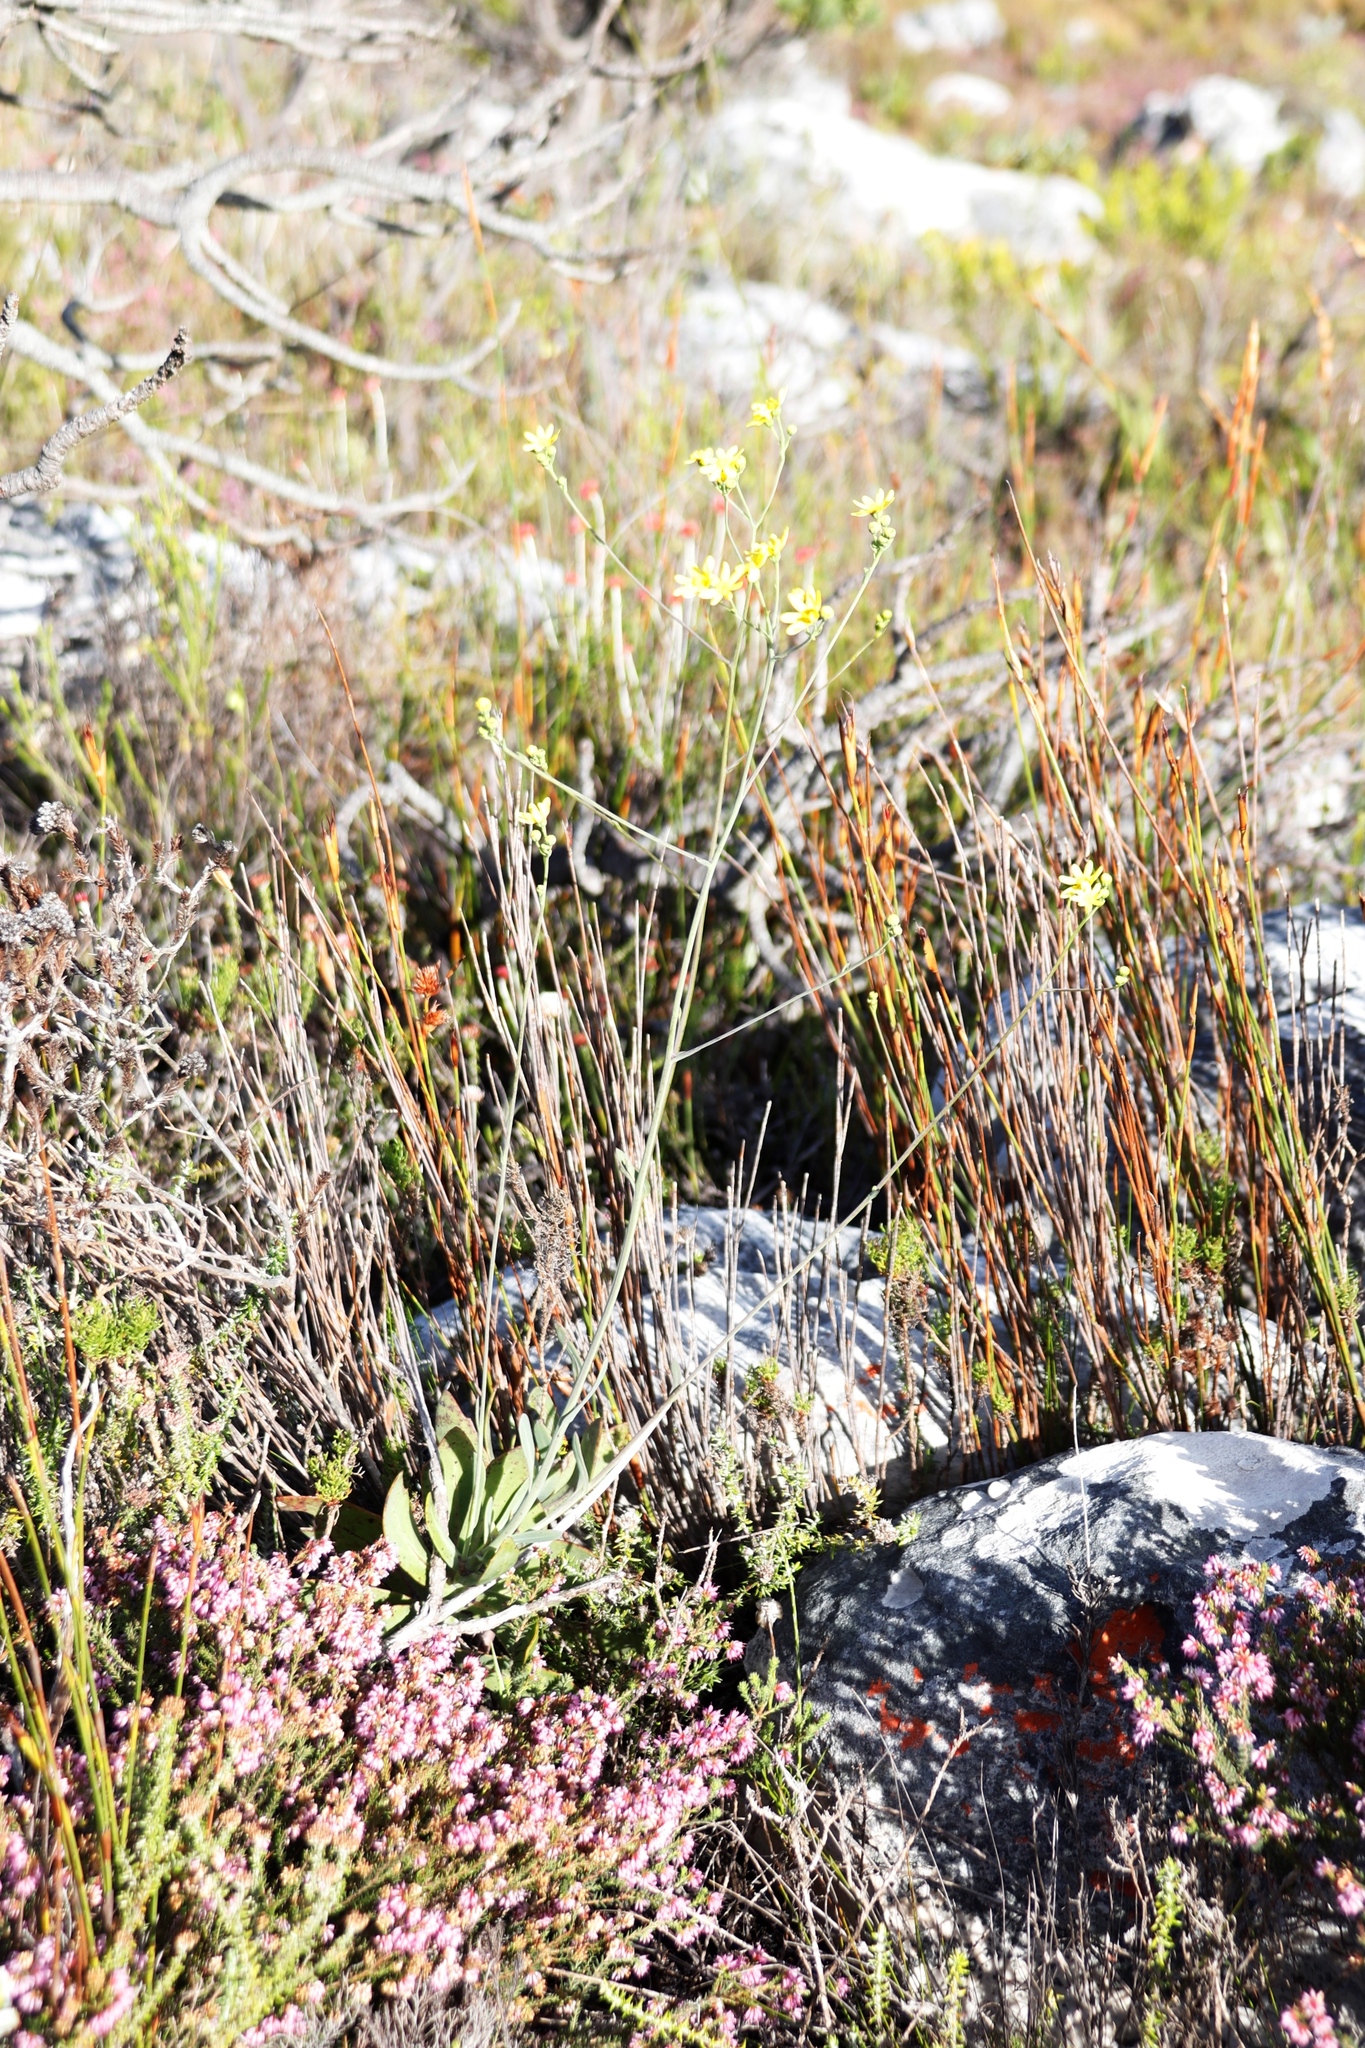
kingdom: Plantae
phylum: Tracheophyta
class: Magnoliopsida
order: Ericales
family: Ericaceae
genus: Erica
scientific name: Erica urna-viridis
